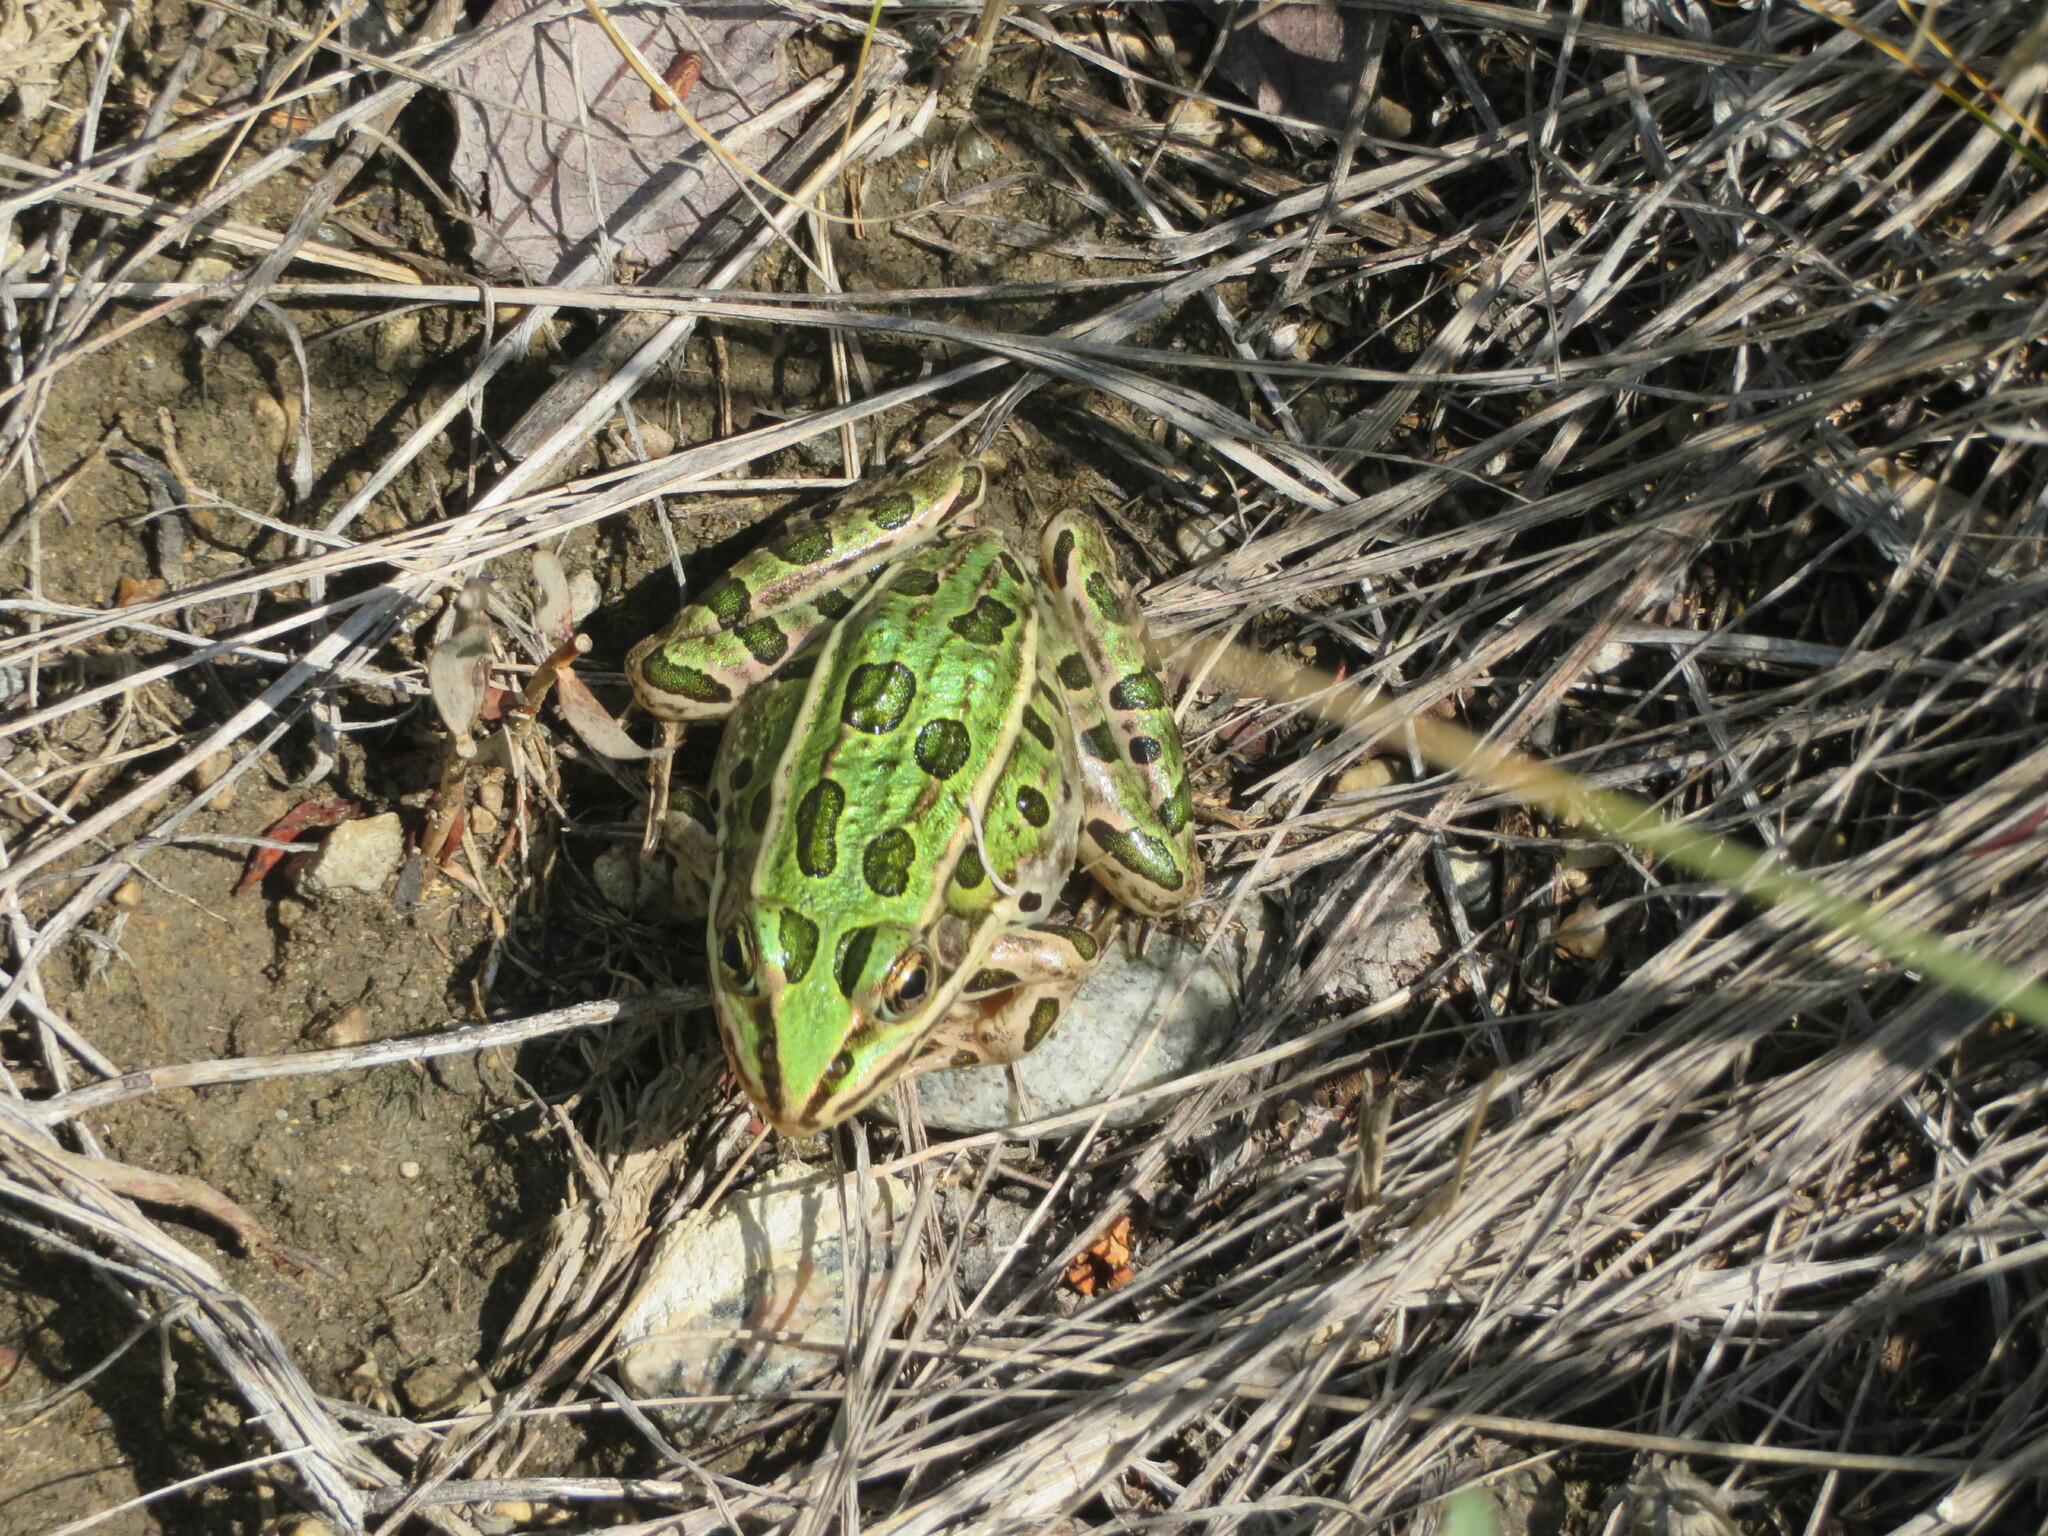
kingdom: Animalia
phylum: Chordata
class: Amphibia
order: Anura
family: Ranidae
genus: Lithobates
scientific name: Lithobates pipiens
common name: Northern leopard frog
